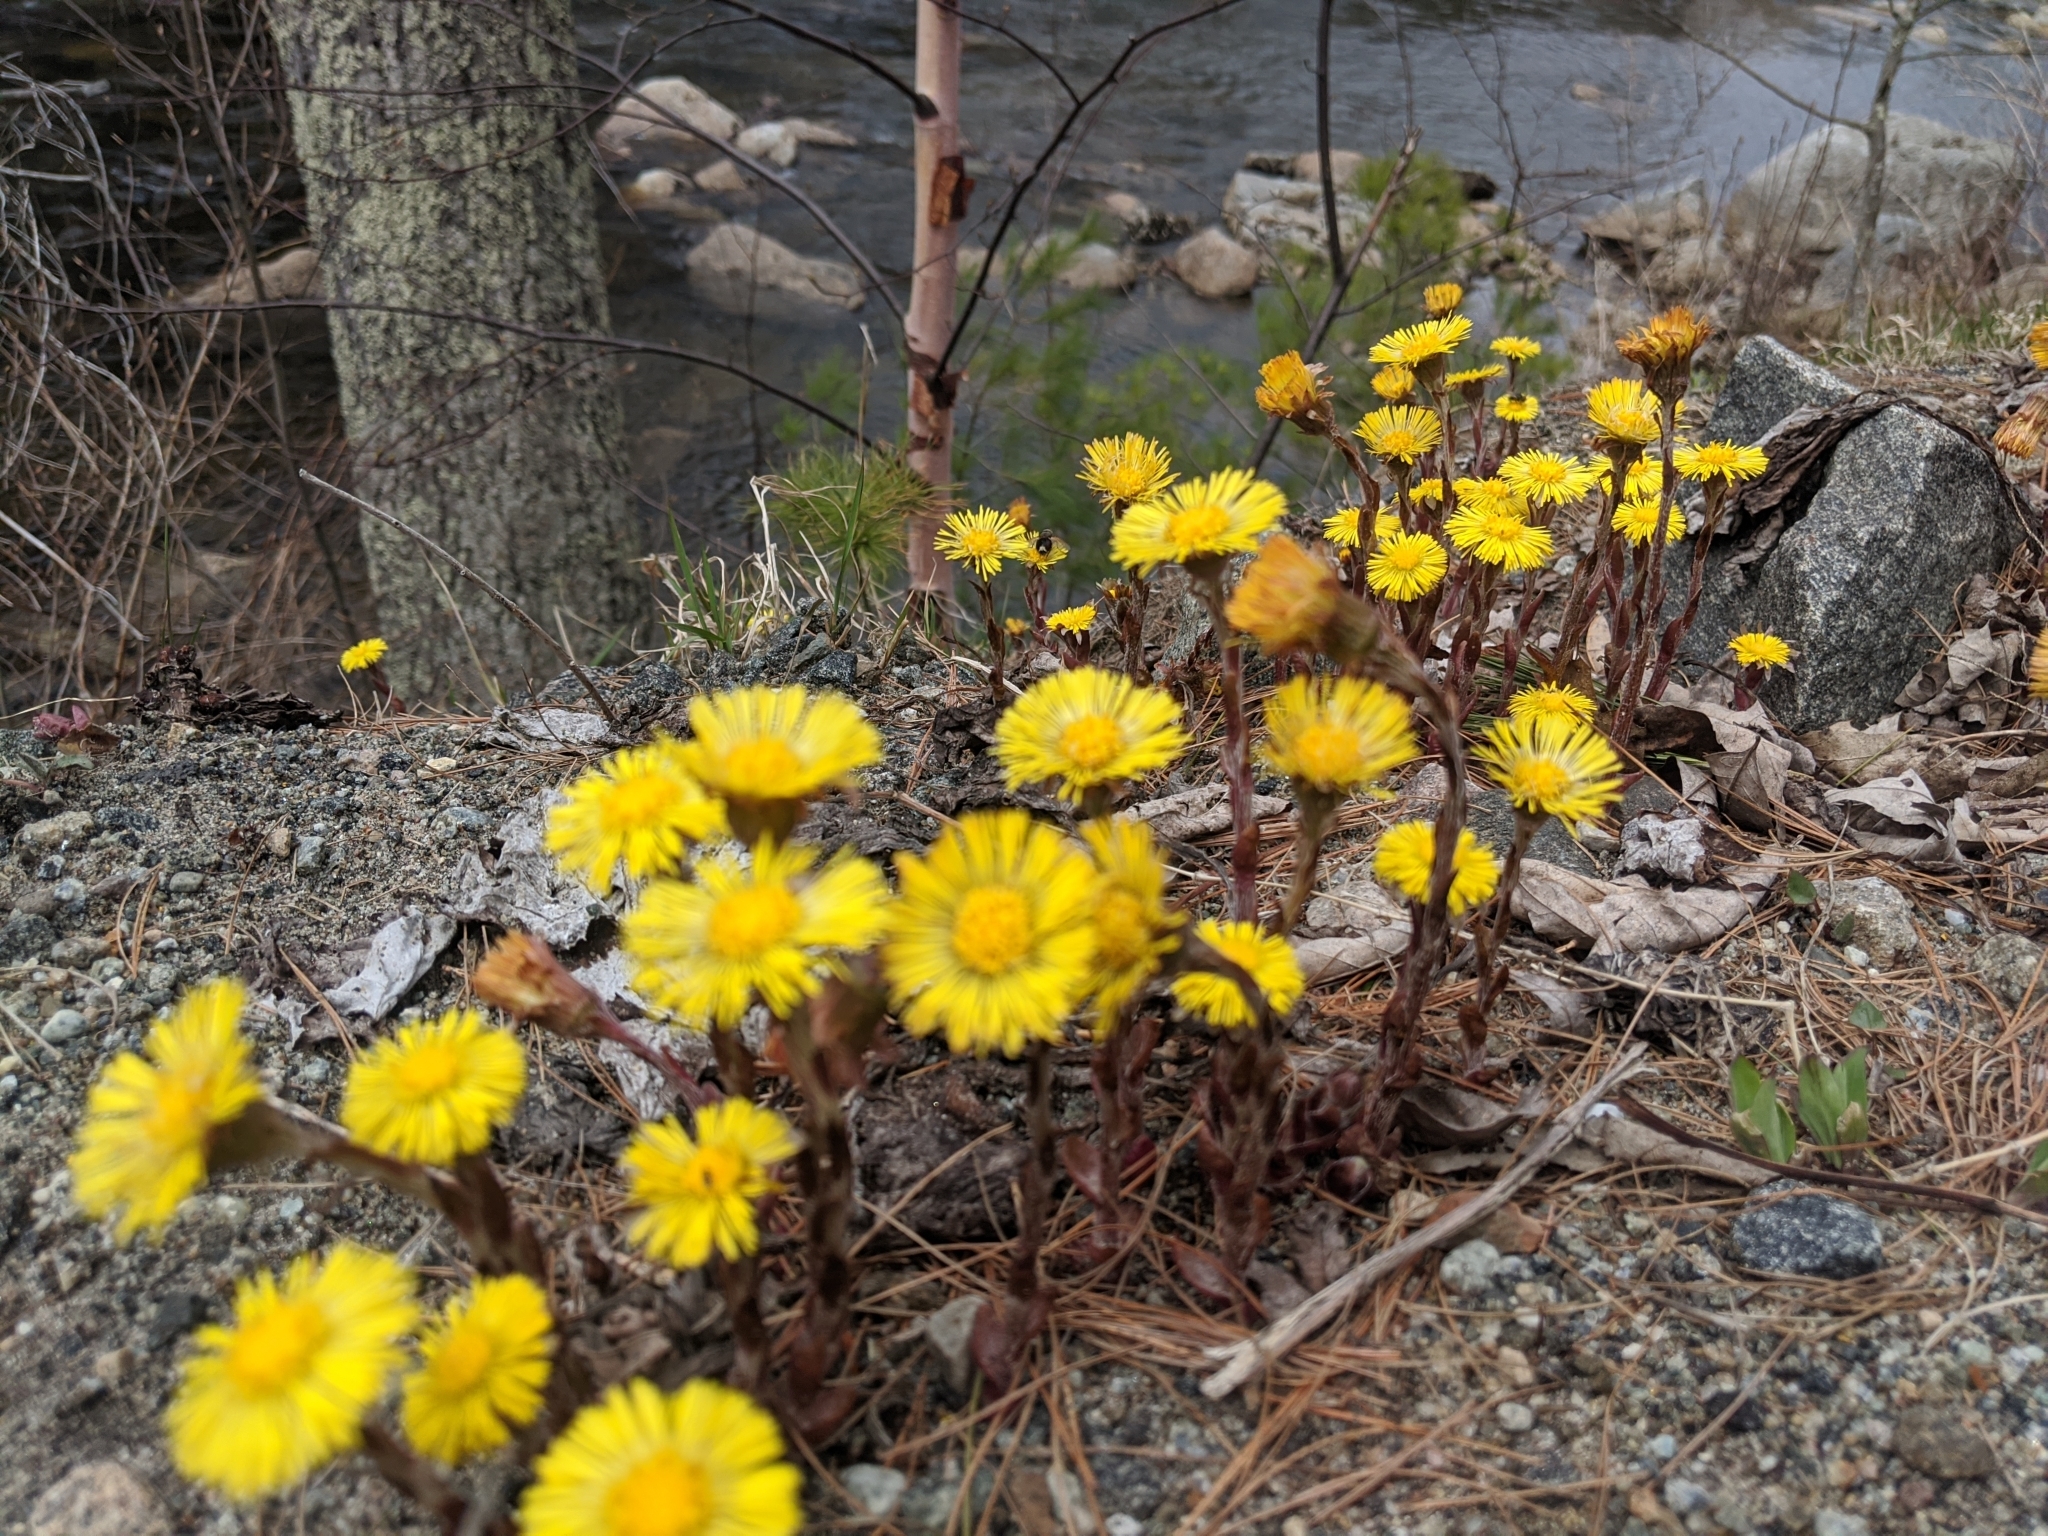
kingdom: Plantae
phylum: Tracheophyta
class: Magnoliopsida
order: Asterales
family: Asteraceae
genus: Tussilago
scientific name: Tussilago farfara
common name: Coltsfoot
